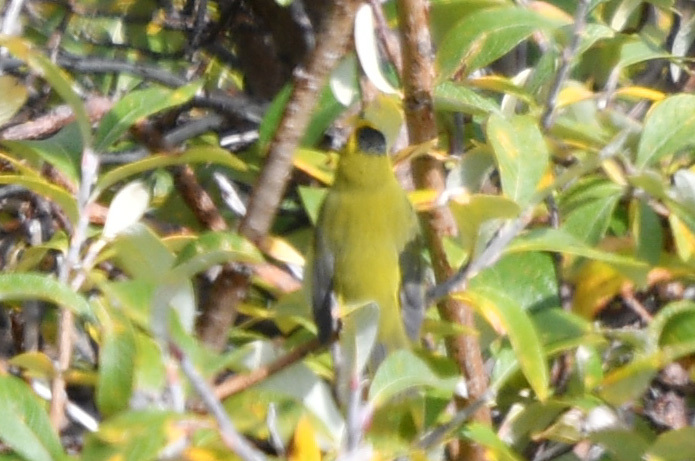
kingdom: Animalia
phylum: Chordata
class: Aves
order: Passeriformes
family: Parulidae
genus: Cardellina
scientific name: Cardellina pusilla
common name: Wilson's warbler
